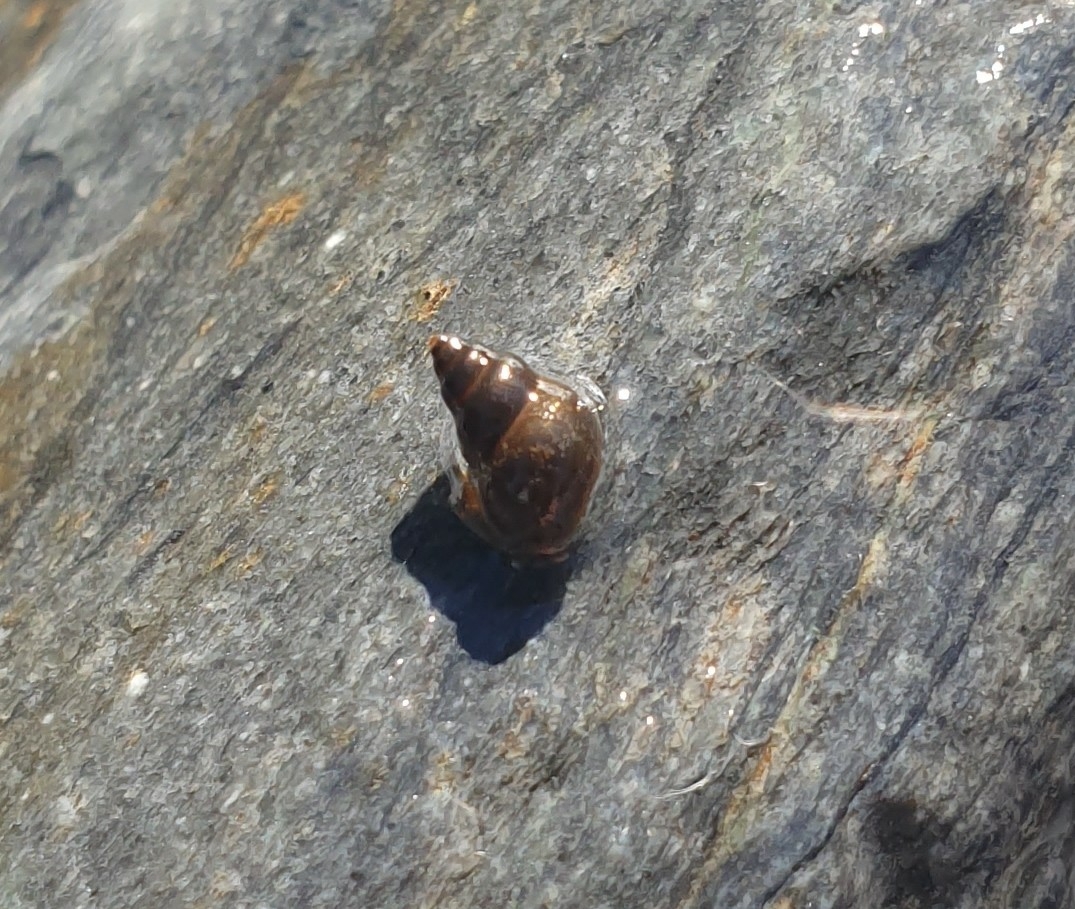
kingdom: Animalia
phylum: Mollusca
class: Gastropoda
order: Littorinimorpha
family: Tateidae
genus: Potamopyrgus
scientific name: Potamopyrgus antipodarum
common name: Jenkins' spire snail
